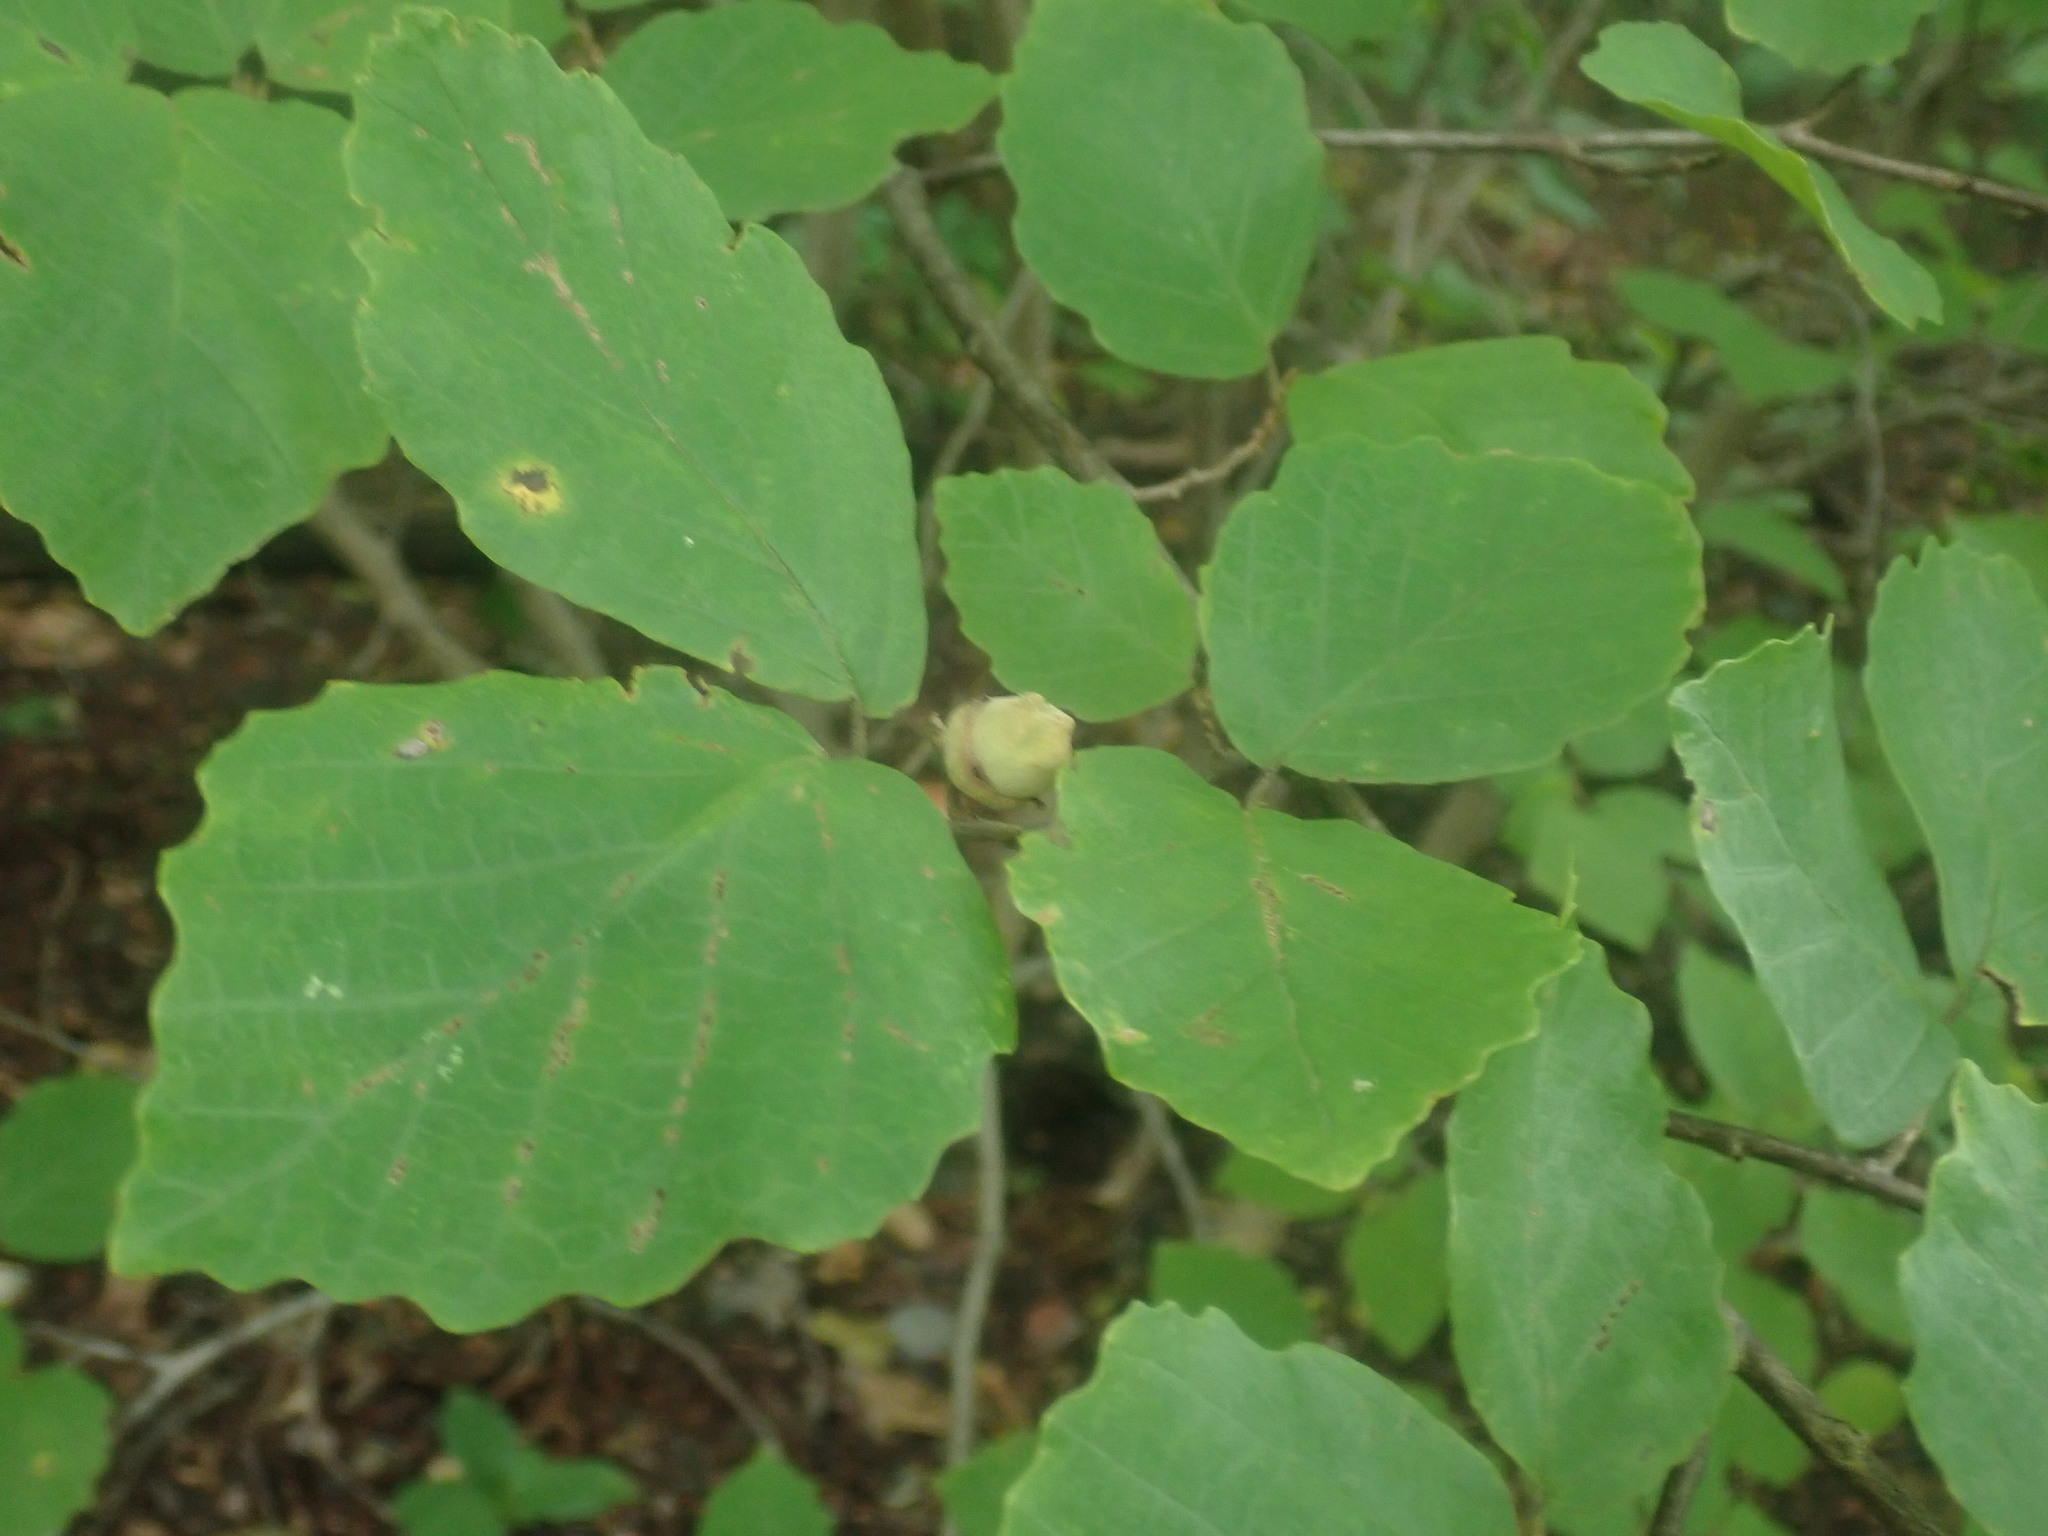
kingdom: Plantae
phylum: Tracheophyta
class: Magnoliopsida
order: Saxifragales
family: Hamamelidaceae
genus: Hamamelis
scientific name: Hamamelis virginiana
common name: Witch-hazel
